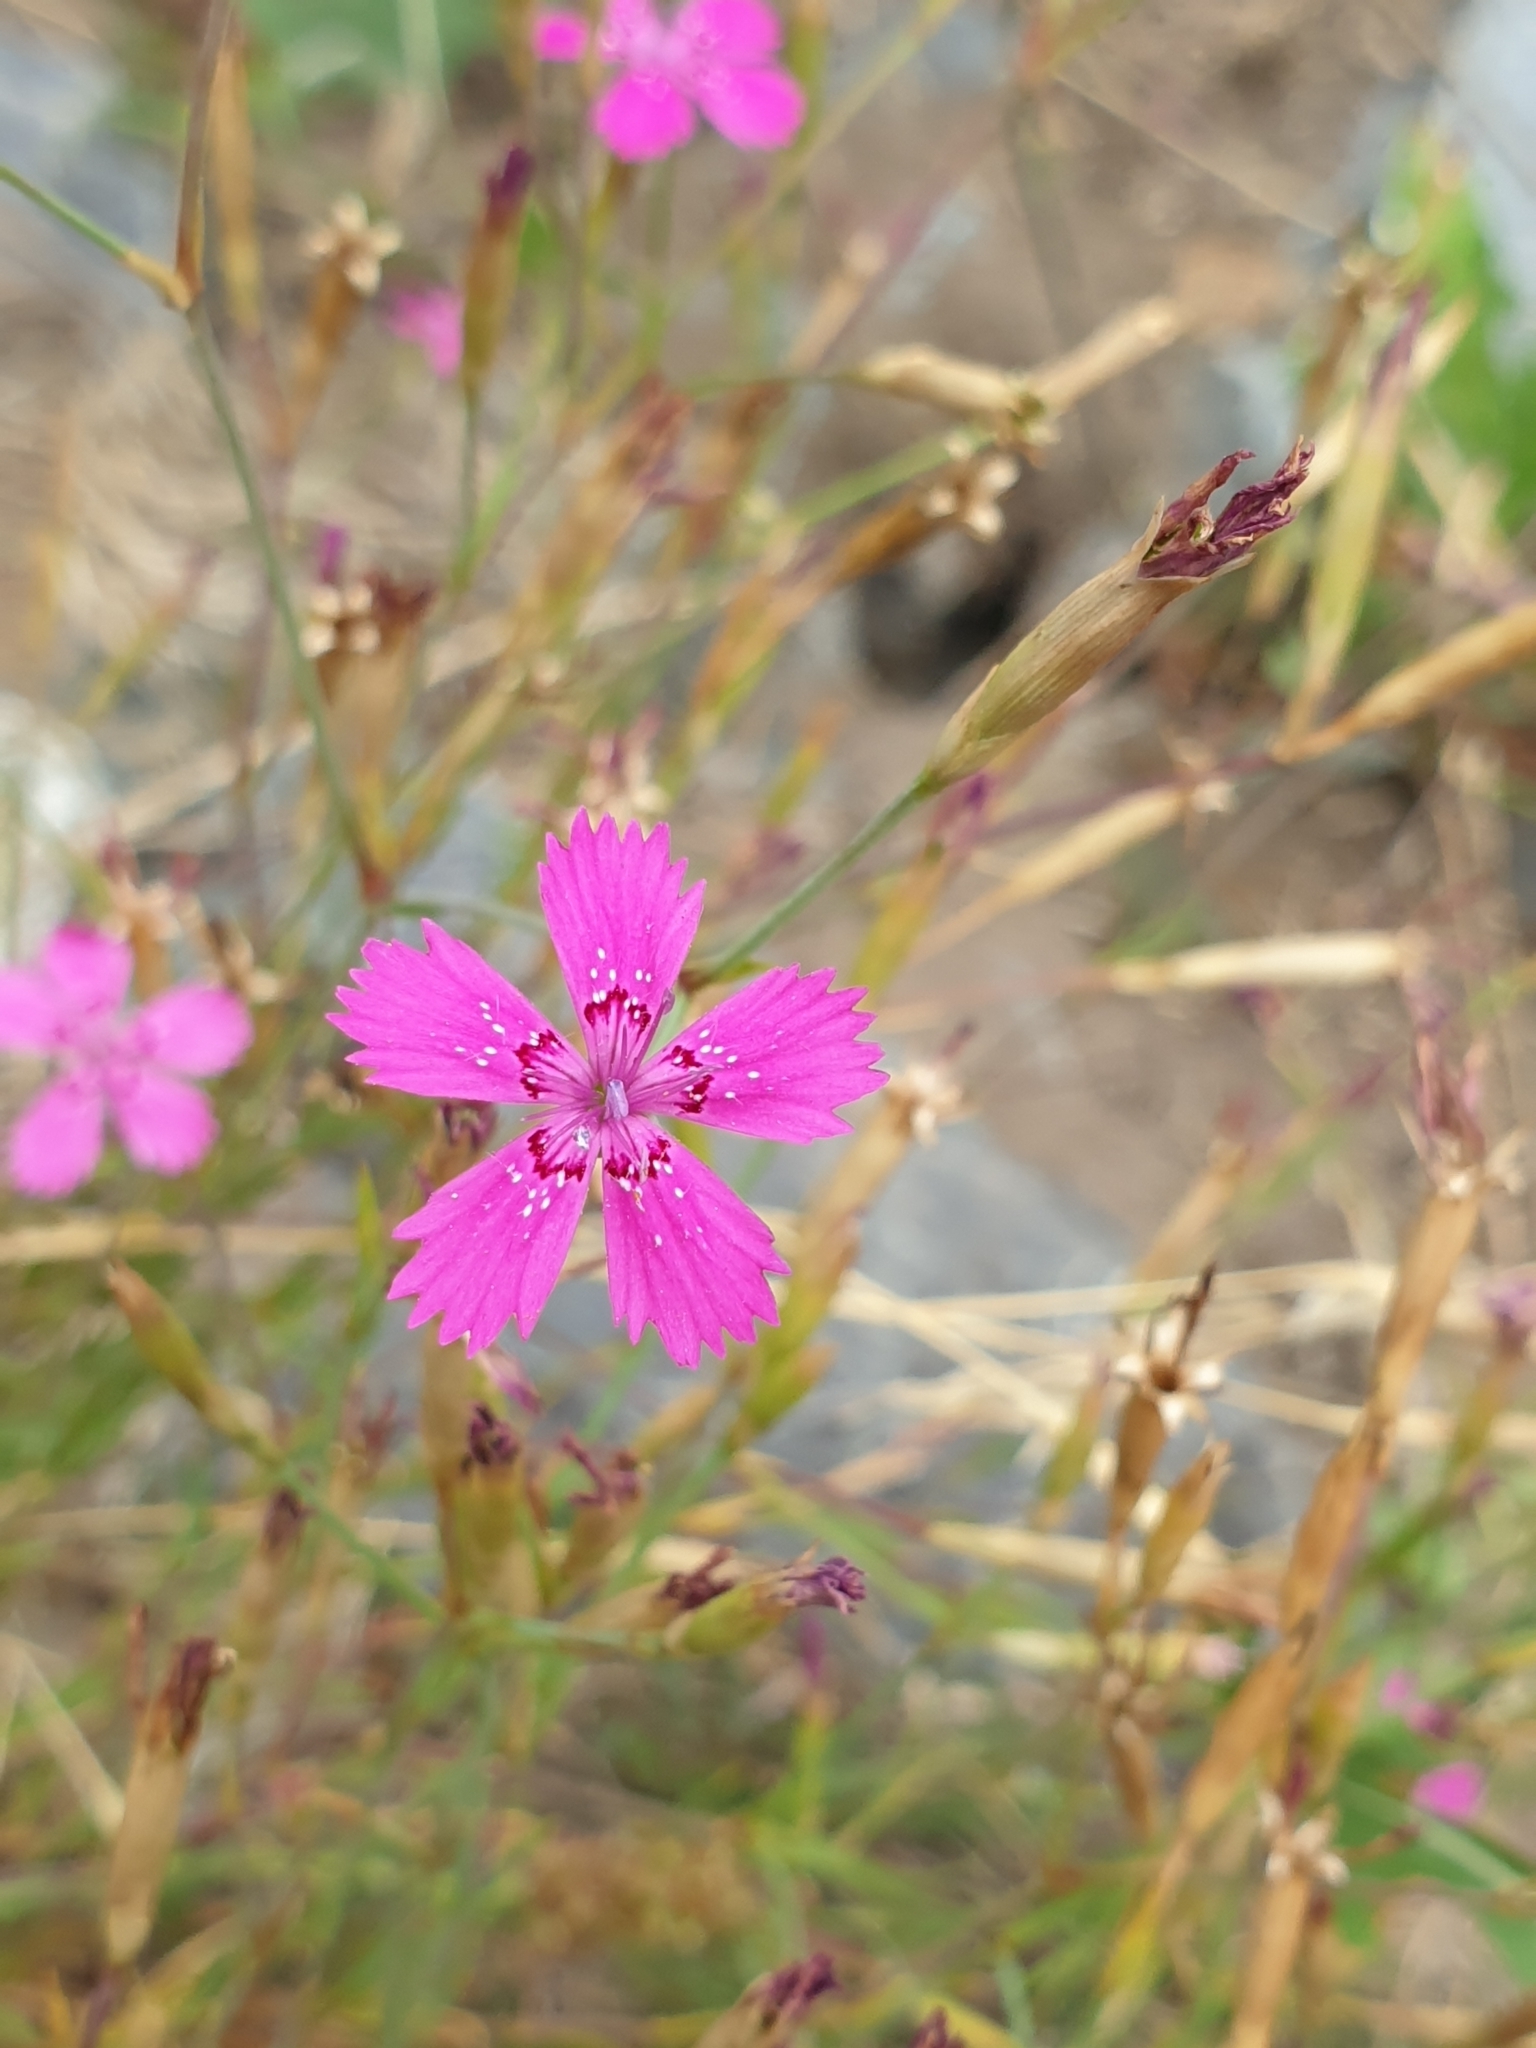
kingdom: Plantae
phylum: Tracheophyta
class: Magnoliopsida
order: Caryophyllales
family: Caryophyllaceae
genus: Dianthus
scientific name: Dianthus deltoides
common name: Maiden pink
